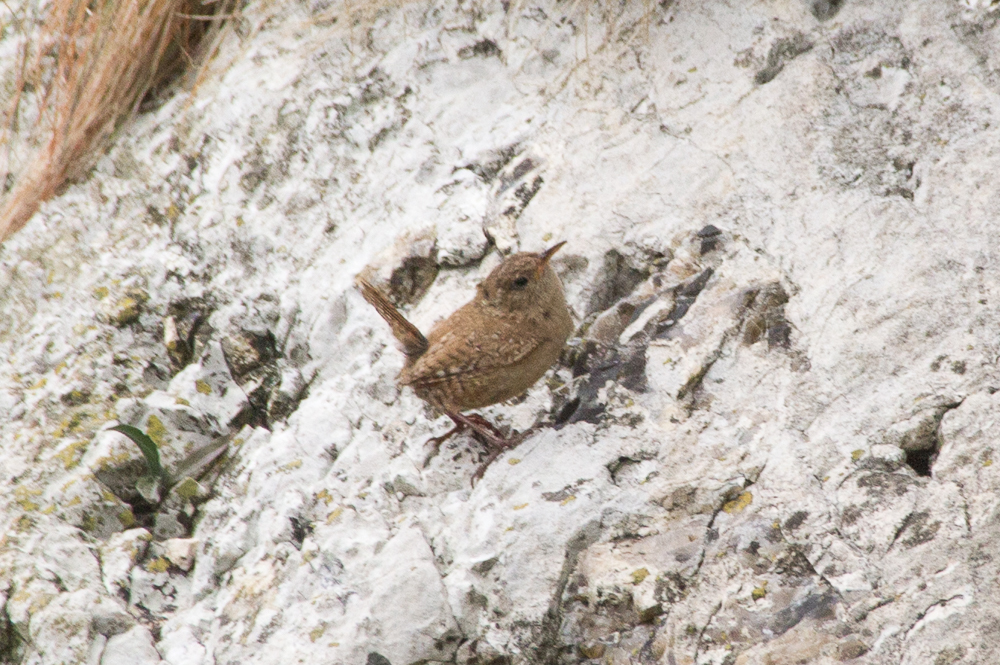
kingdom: Animalia
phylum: Chordata
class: Aves
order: Passeriformes
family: Troglodytidae
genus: Troglodytes
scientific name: Troglodytes troglodytes
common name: Eurasian wren
